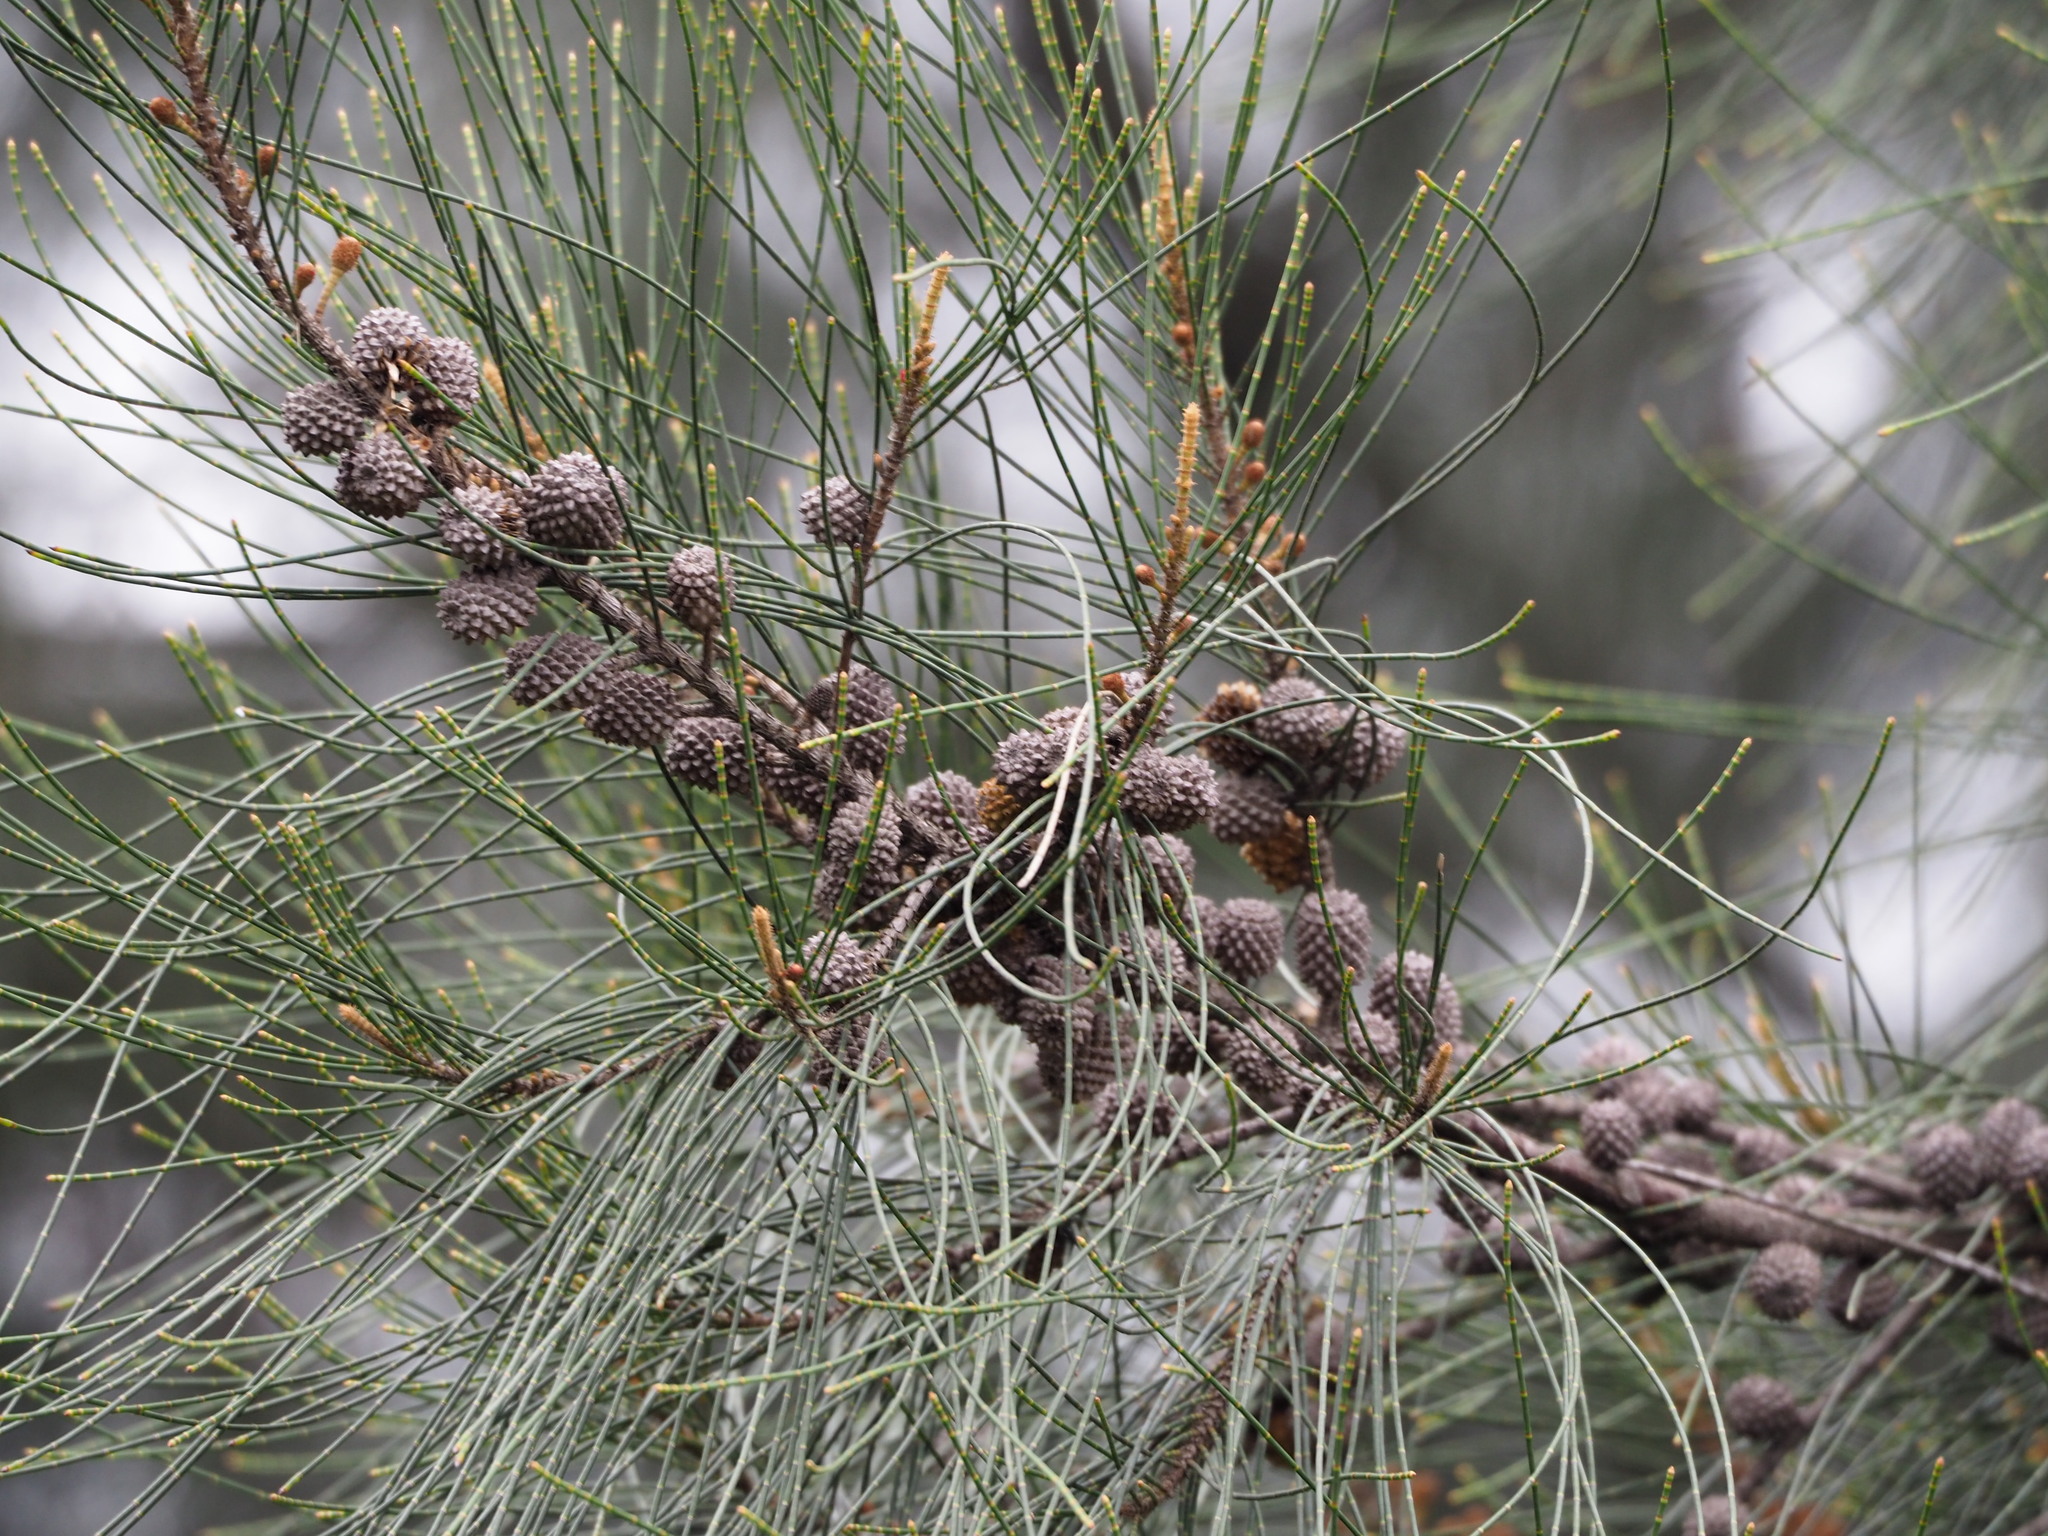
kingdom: Plantae
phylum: Tracheophyta
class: Magnoliopsida
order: Fagales
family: Casuarinaceae
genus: Casuarina
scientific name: Casuarina equisetifolia
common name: Beach sheoak
